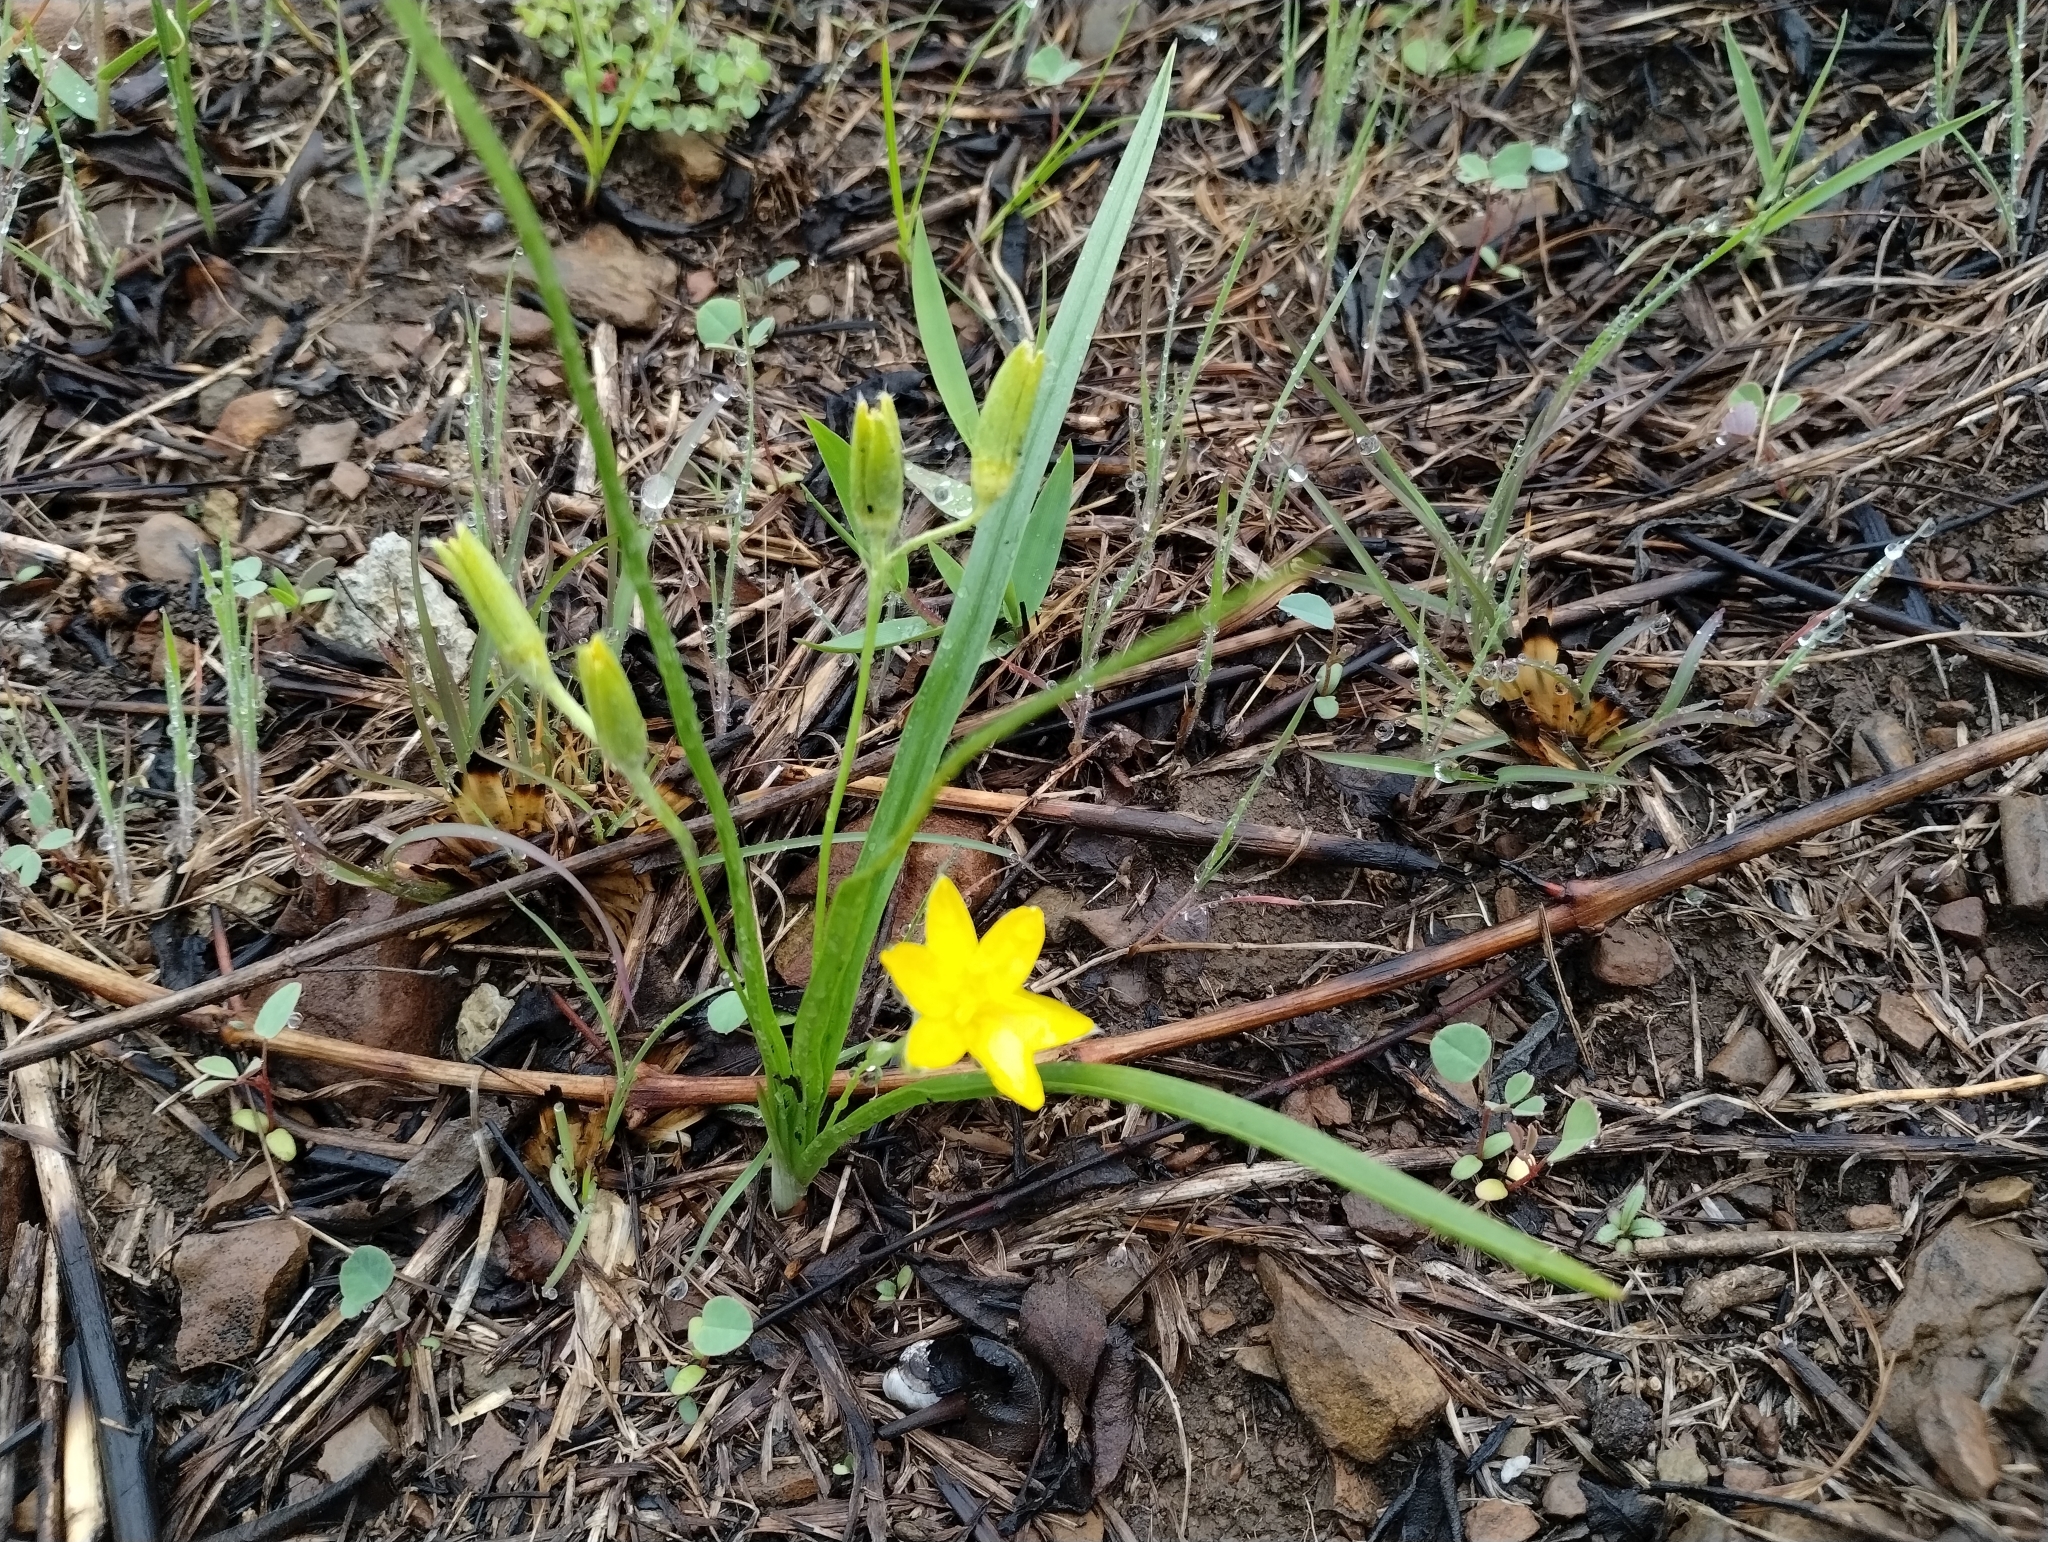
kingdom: Plantae
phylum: Tracheophyta
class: Liliopsida
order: Asparagales
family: Hypoxidaceae
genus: Hypoxis
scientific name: Hypoxis hirsuta
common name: Common goldstar
